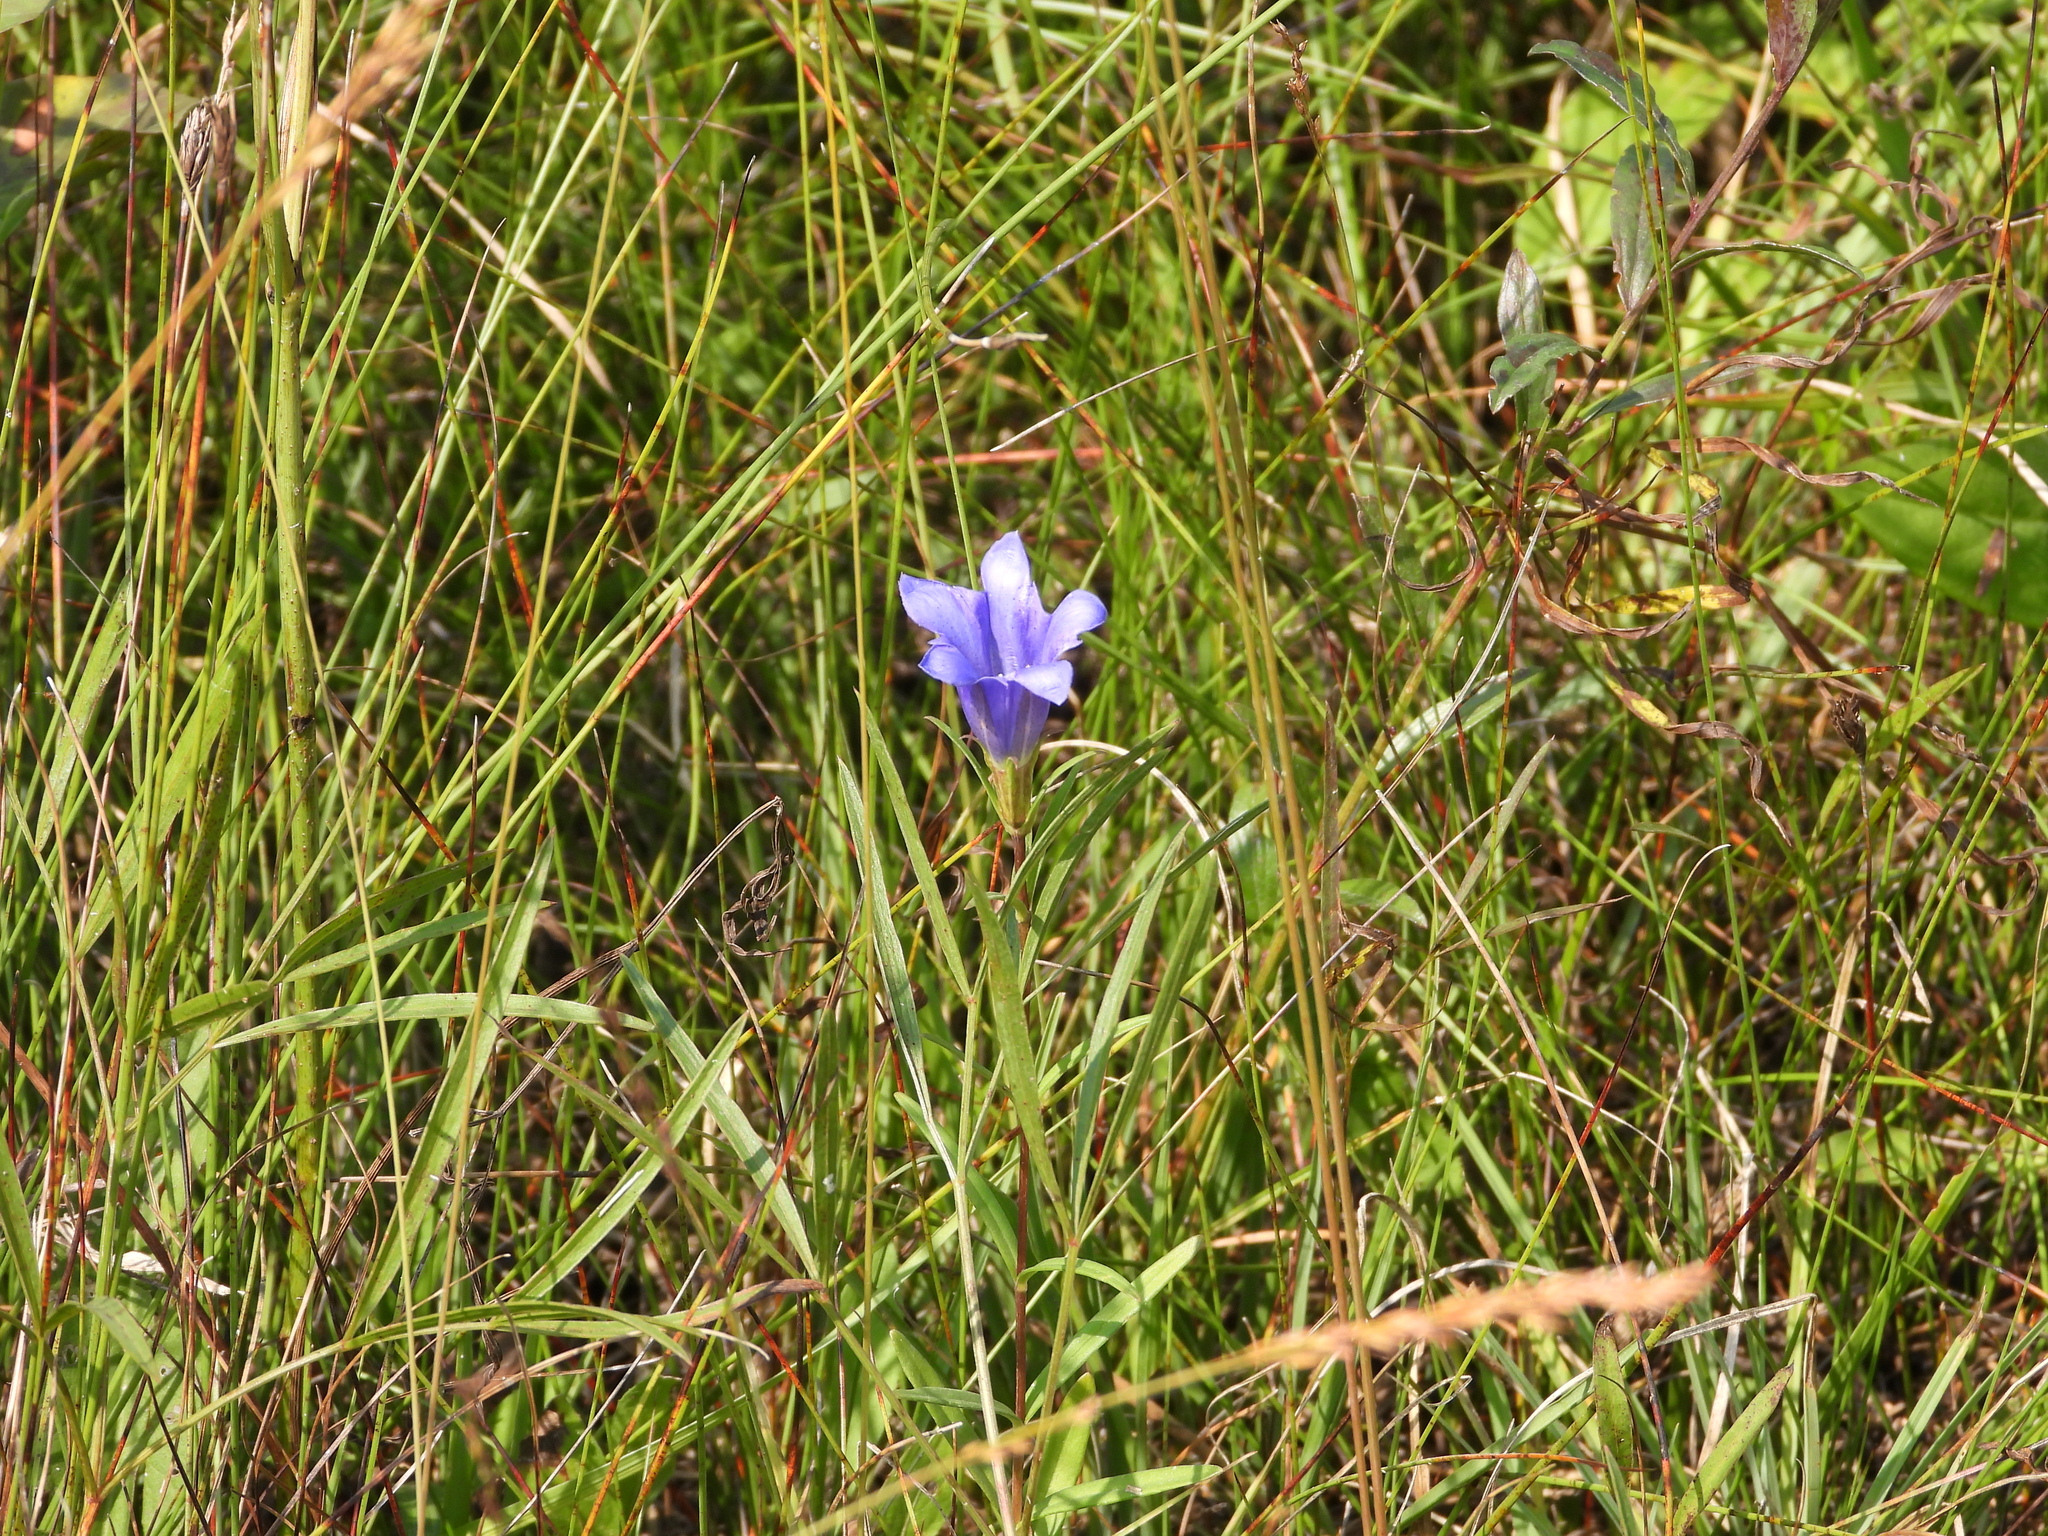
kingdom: Plantae
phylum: Tracheophyta
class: Magnoliopsida
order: Gentianales
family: Gentianaceae
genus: Gentiana
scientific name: Gentiana pneumonanthe
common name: Marsh gentian
